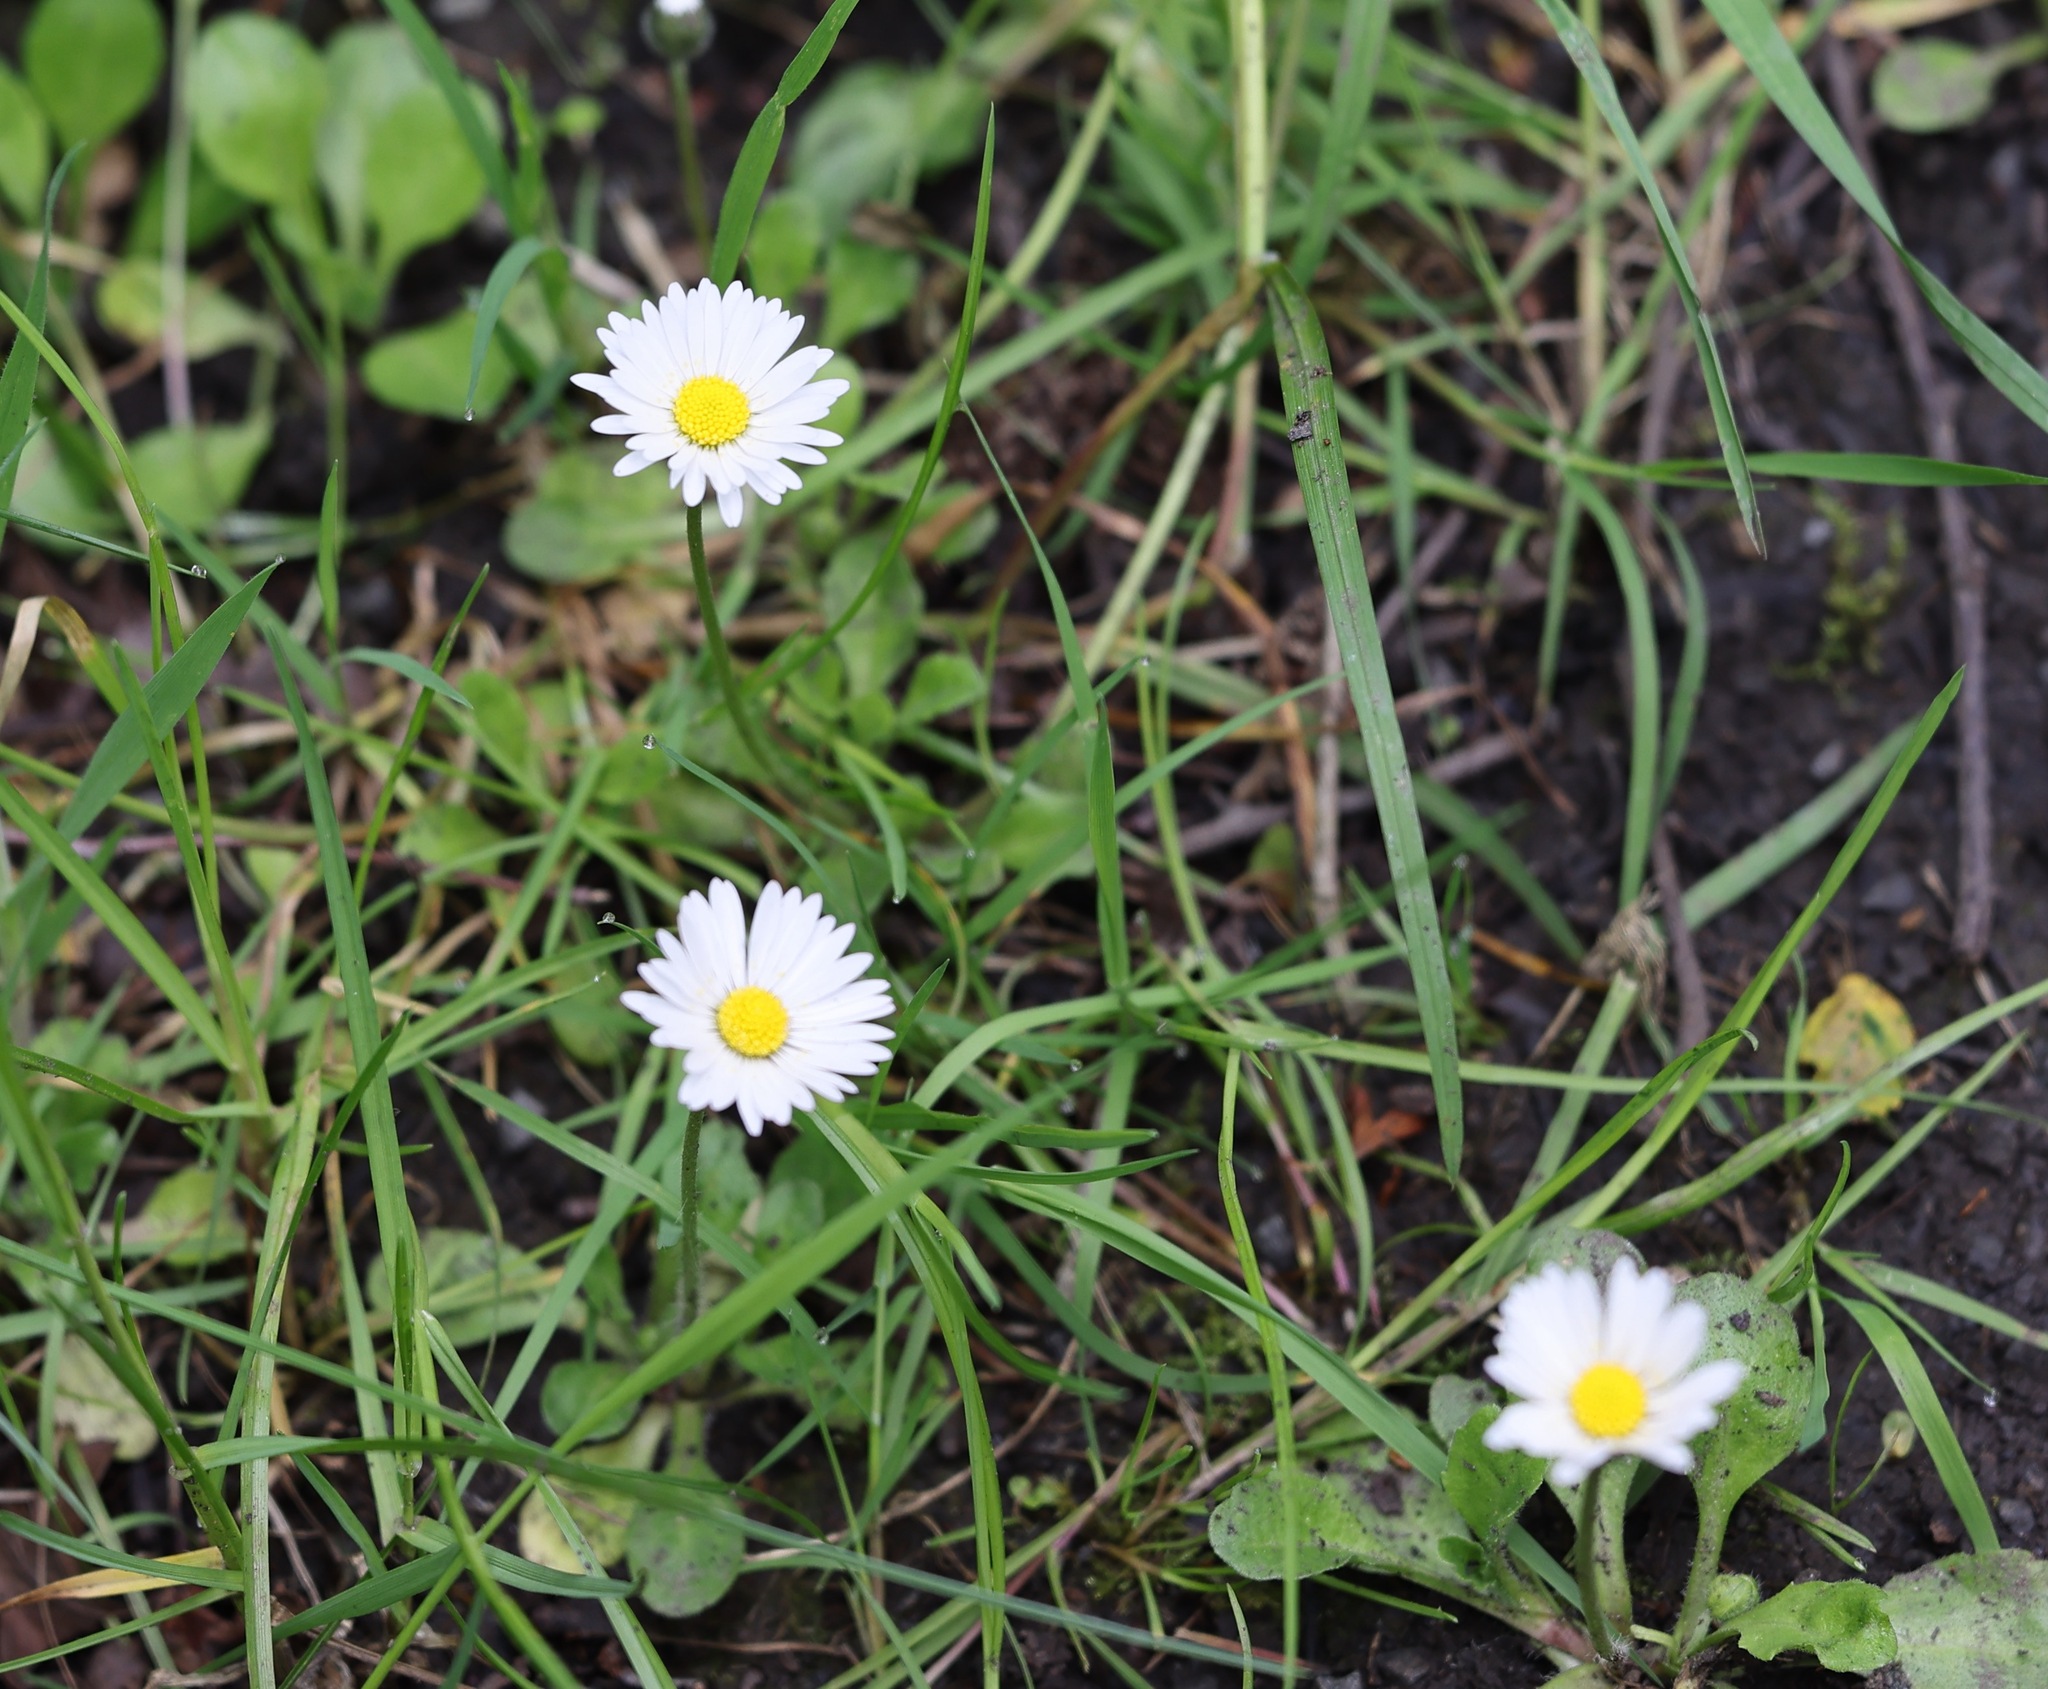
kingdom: Plantae
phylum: Tracheophyta
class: Magnoliopsida
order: Asterales
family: Asteraceae
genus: Bellis
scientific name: Bellis perennis
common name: Lawndaisy
